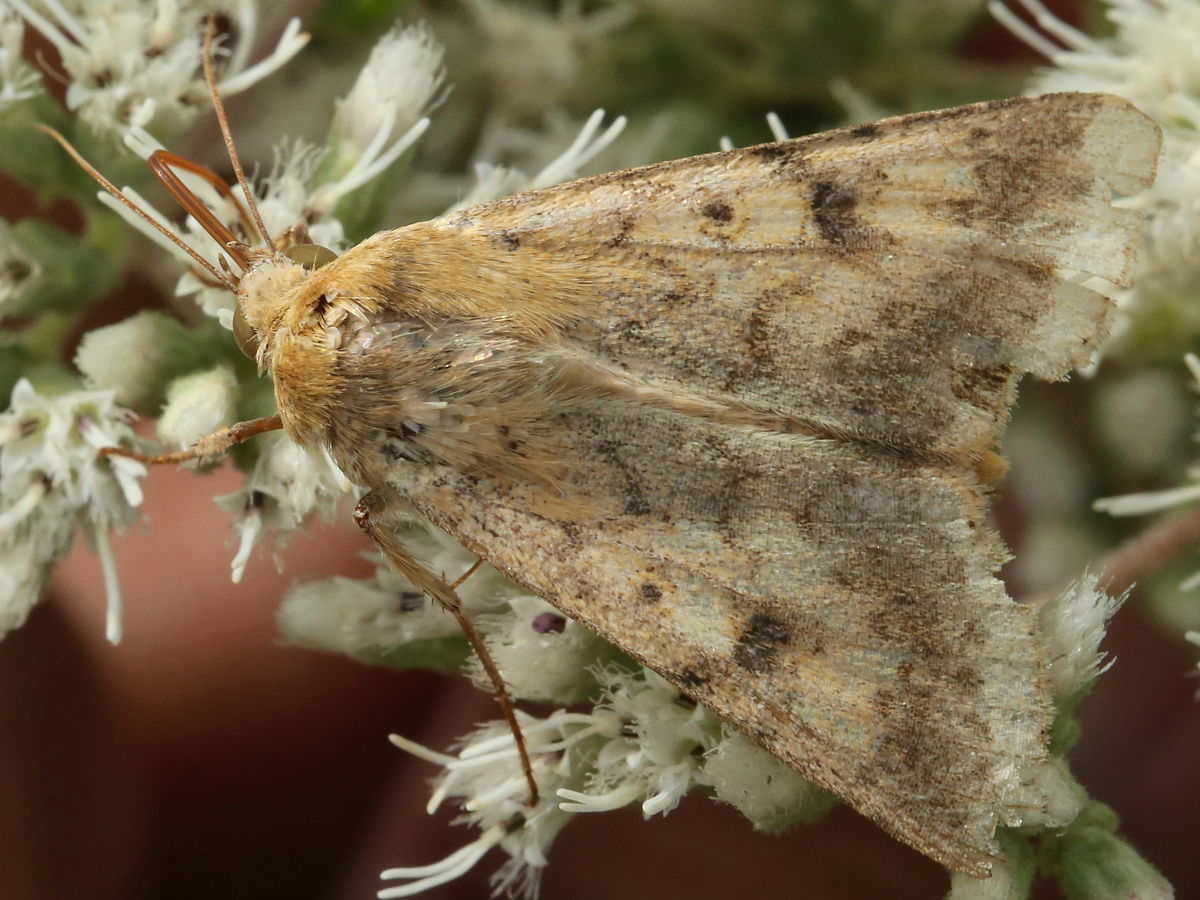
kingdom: Animalia
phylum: Arthropoda
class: Insecta
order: Lepidoptera
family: Noctuidae
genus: Helicoverpa
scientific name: Helicoverpa zea
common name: Bollworm
